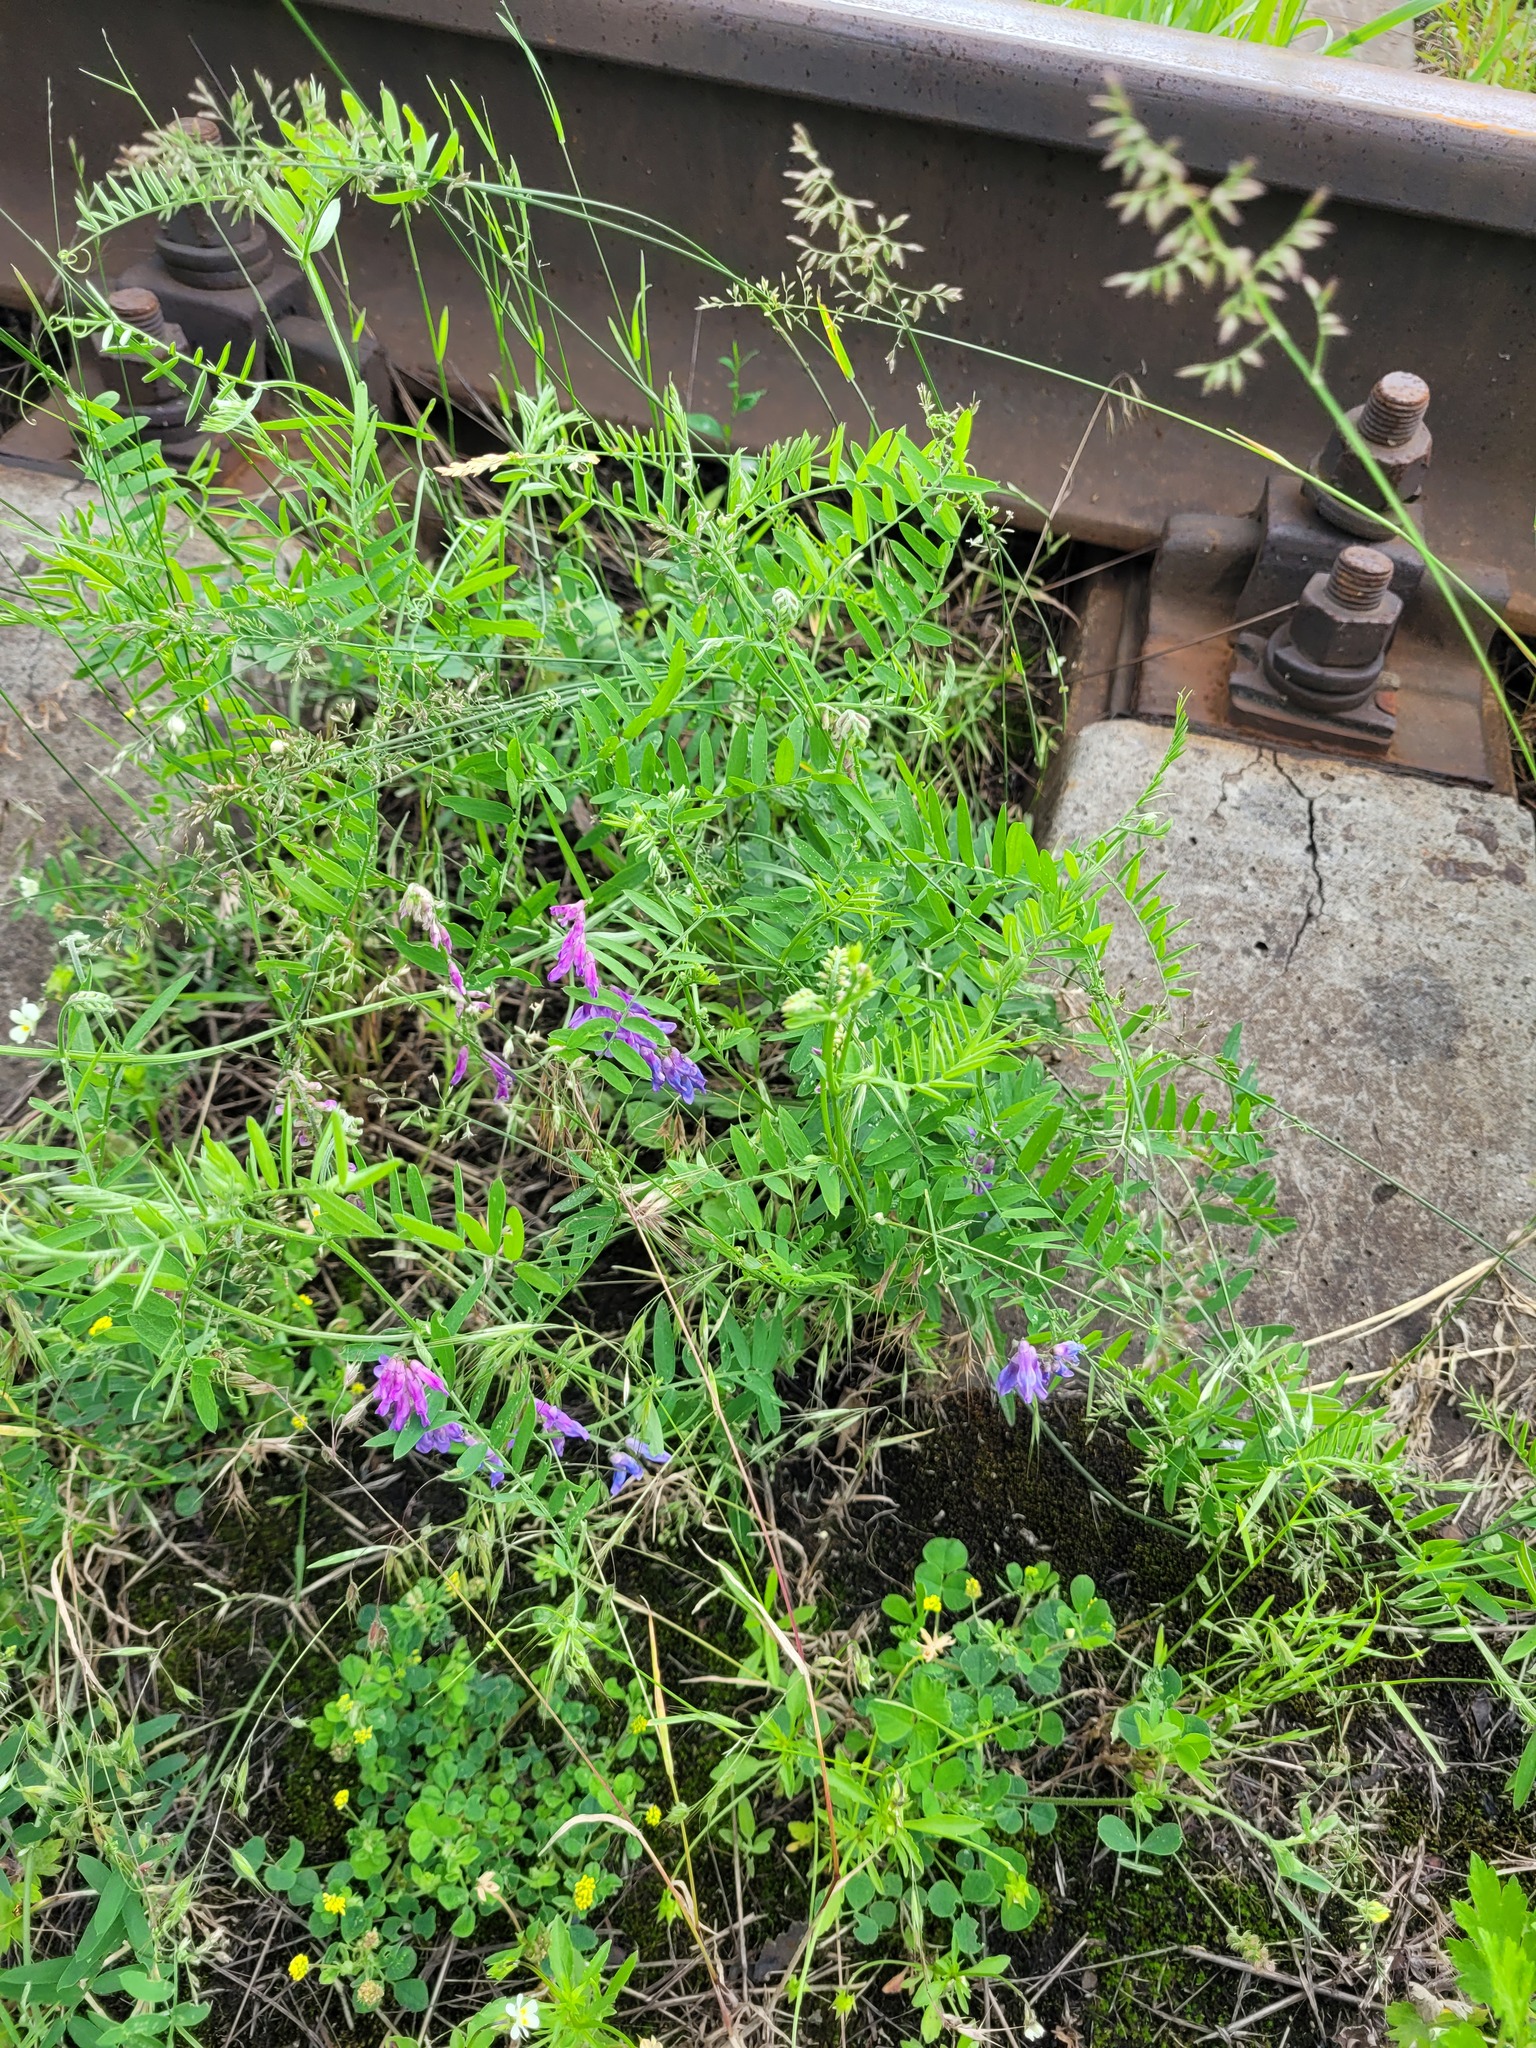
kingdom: Plantae
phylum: Tracheophyta
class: Magnoliopsida
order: Fabales
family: Fabaceae
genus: Vicia
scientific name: Vicia cracca
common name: Bird vetch
